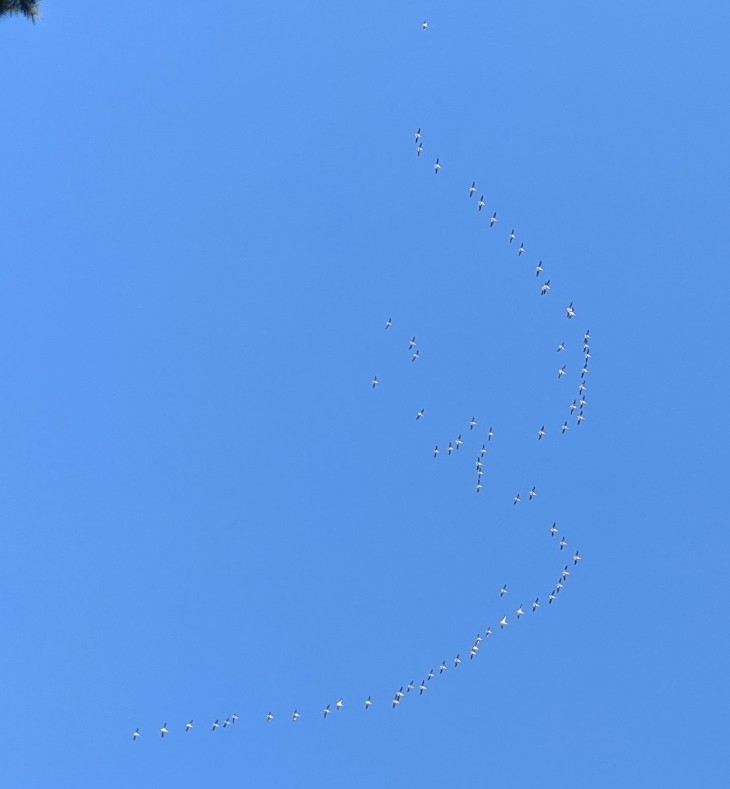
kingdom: Animalia
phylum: Chordata
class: Aves
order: Pelecaniformes
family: Pelecanidae
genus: Pelecanus
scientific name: Pelecanus erythrorhynchos
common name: American white pelican
